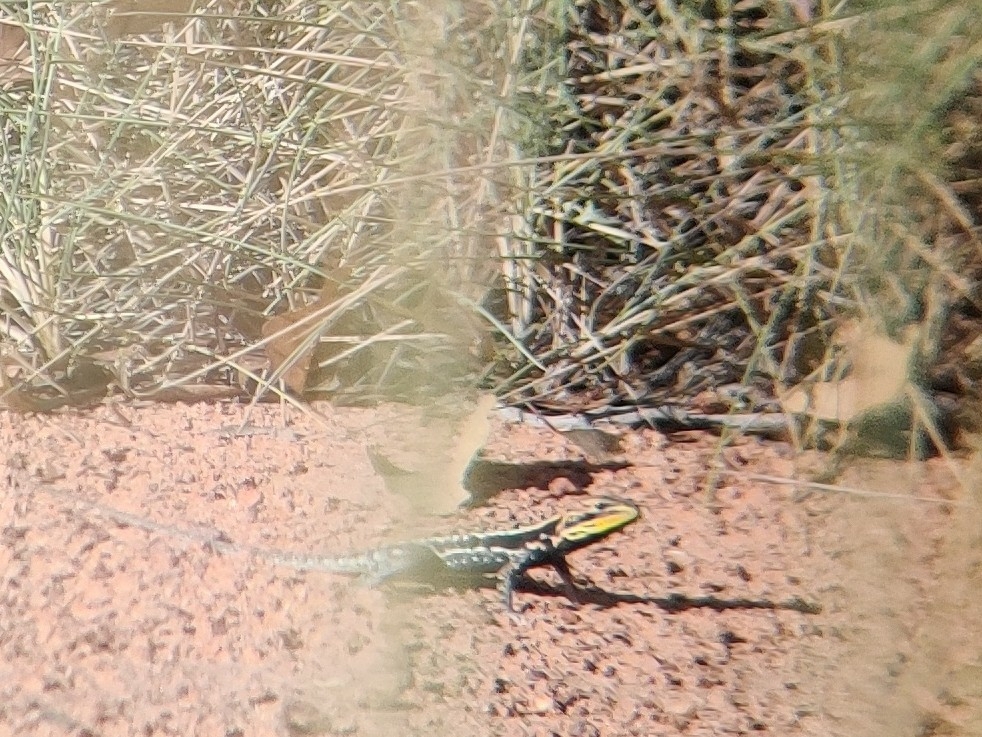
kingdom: Animalia
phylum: Chordata
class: Squamata
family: Agamidae
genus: Ctenophorus
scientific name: Ctenophorus isolepis
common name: Military dragon
